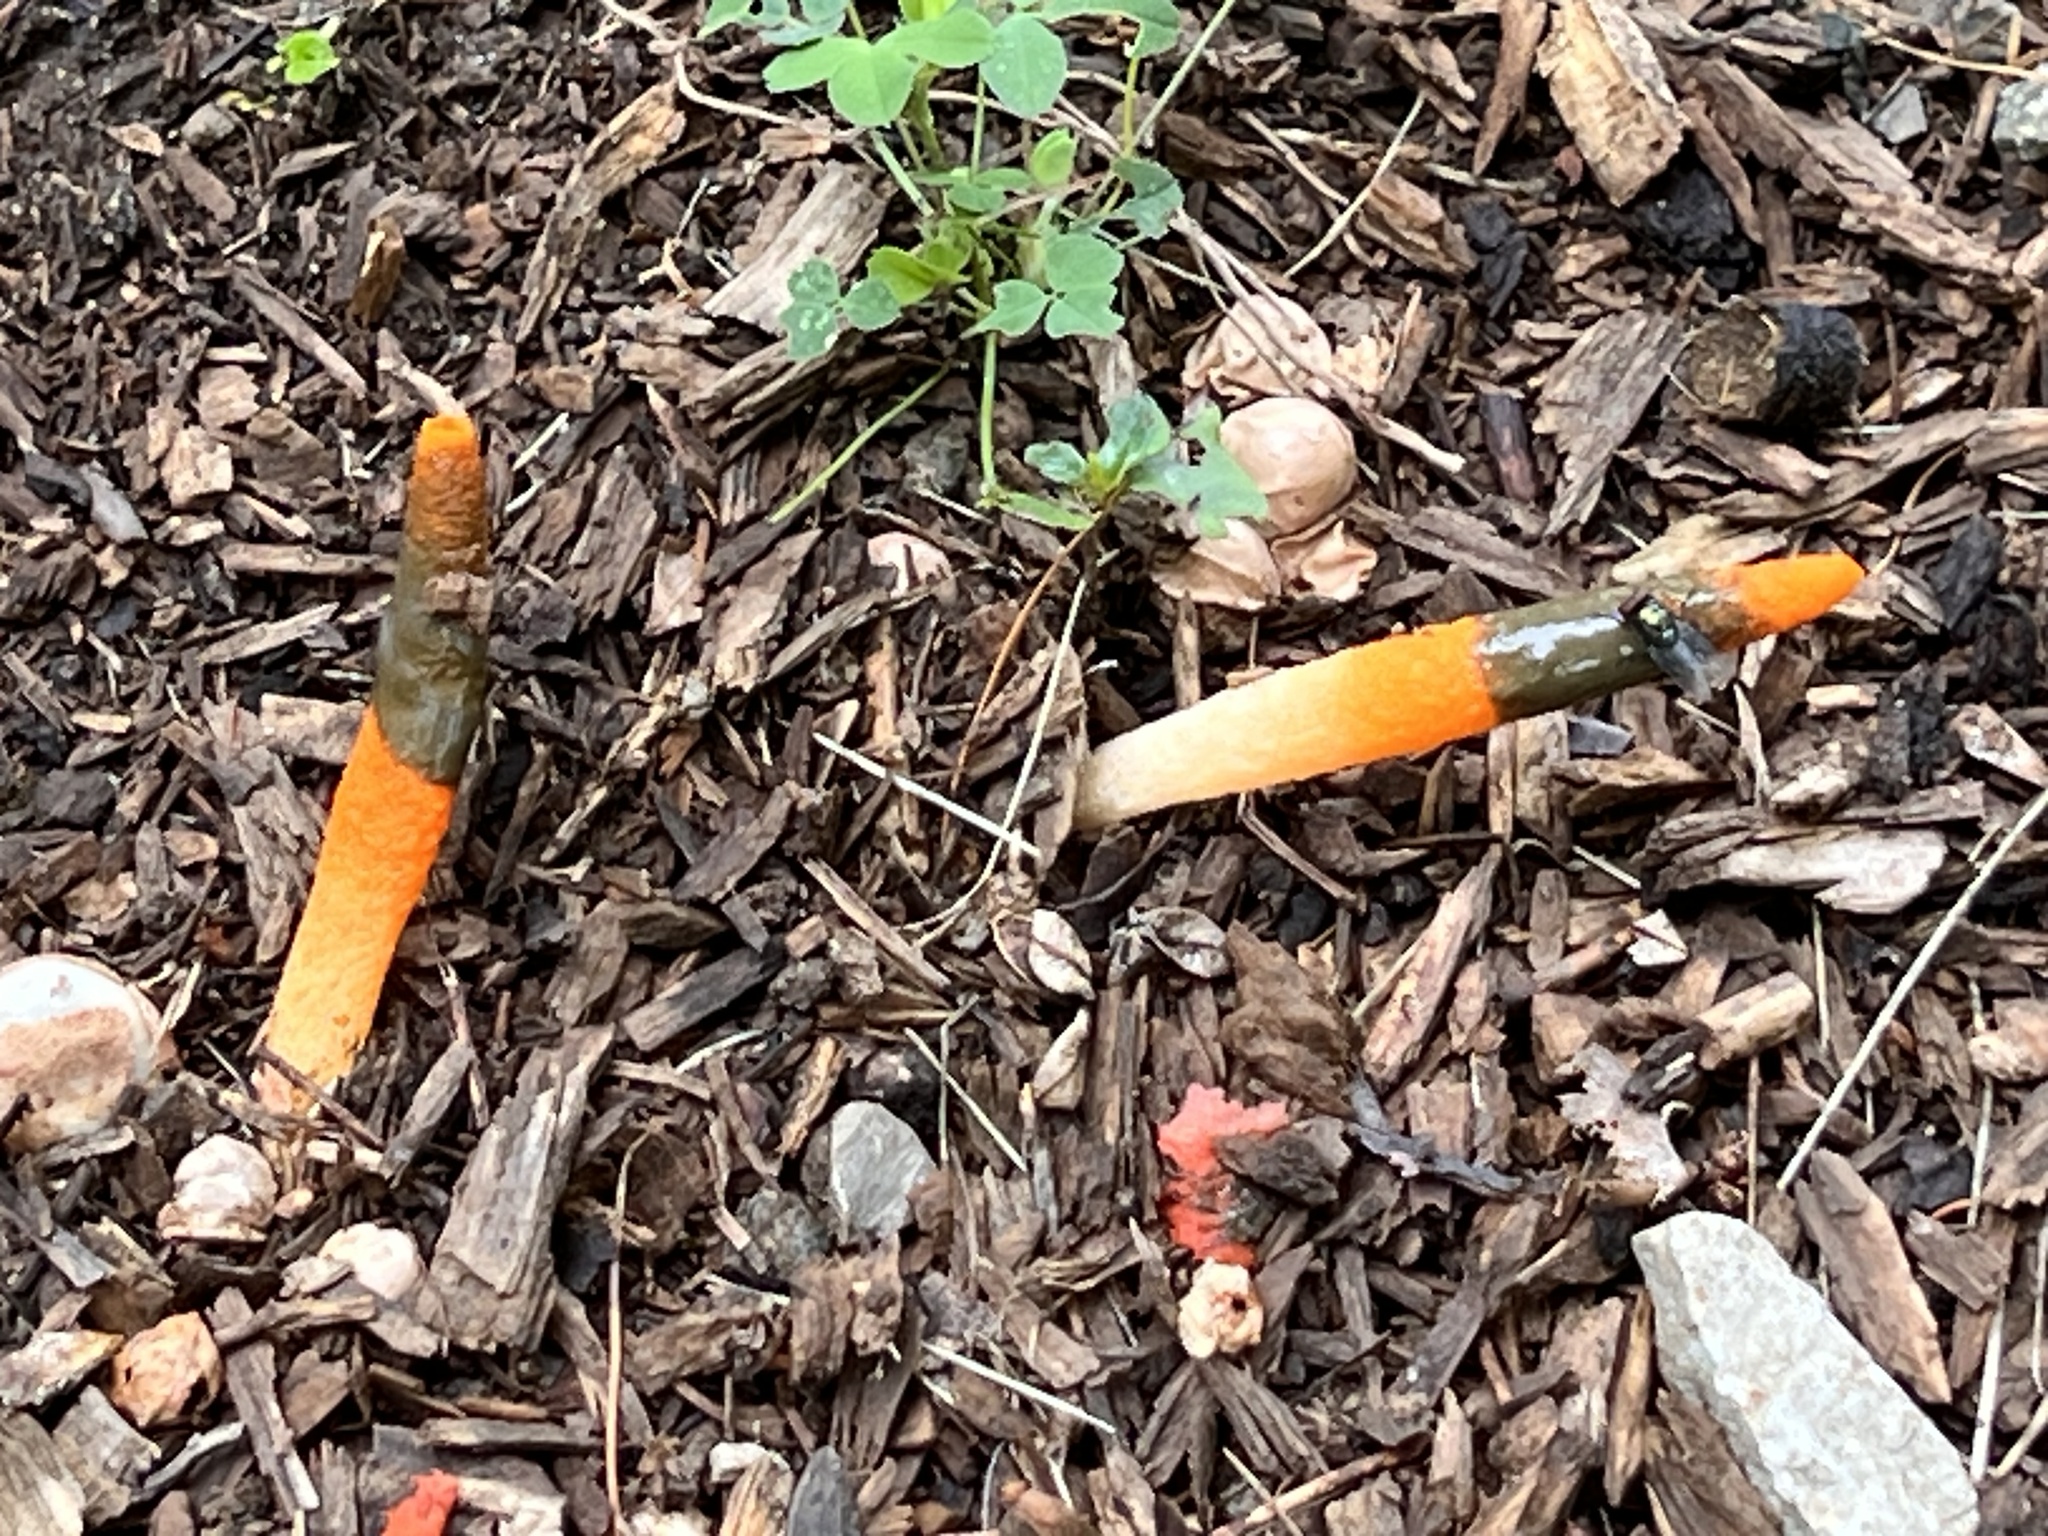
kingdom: Fungi
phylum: Basidiomycota
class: Agaricomycetes
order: Phallales
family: Phallaceae
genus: Mutinus
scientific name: Mutinus elegans
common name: Devil's dipstick
